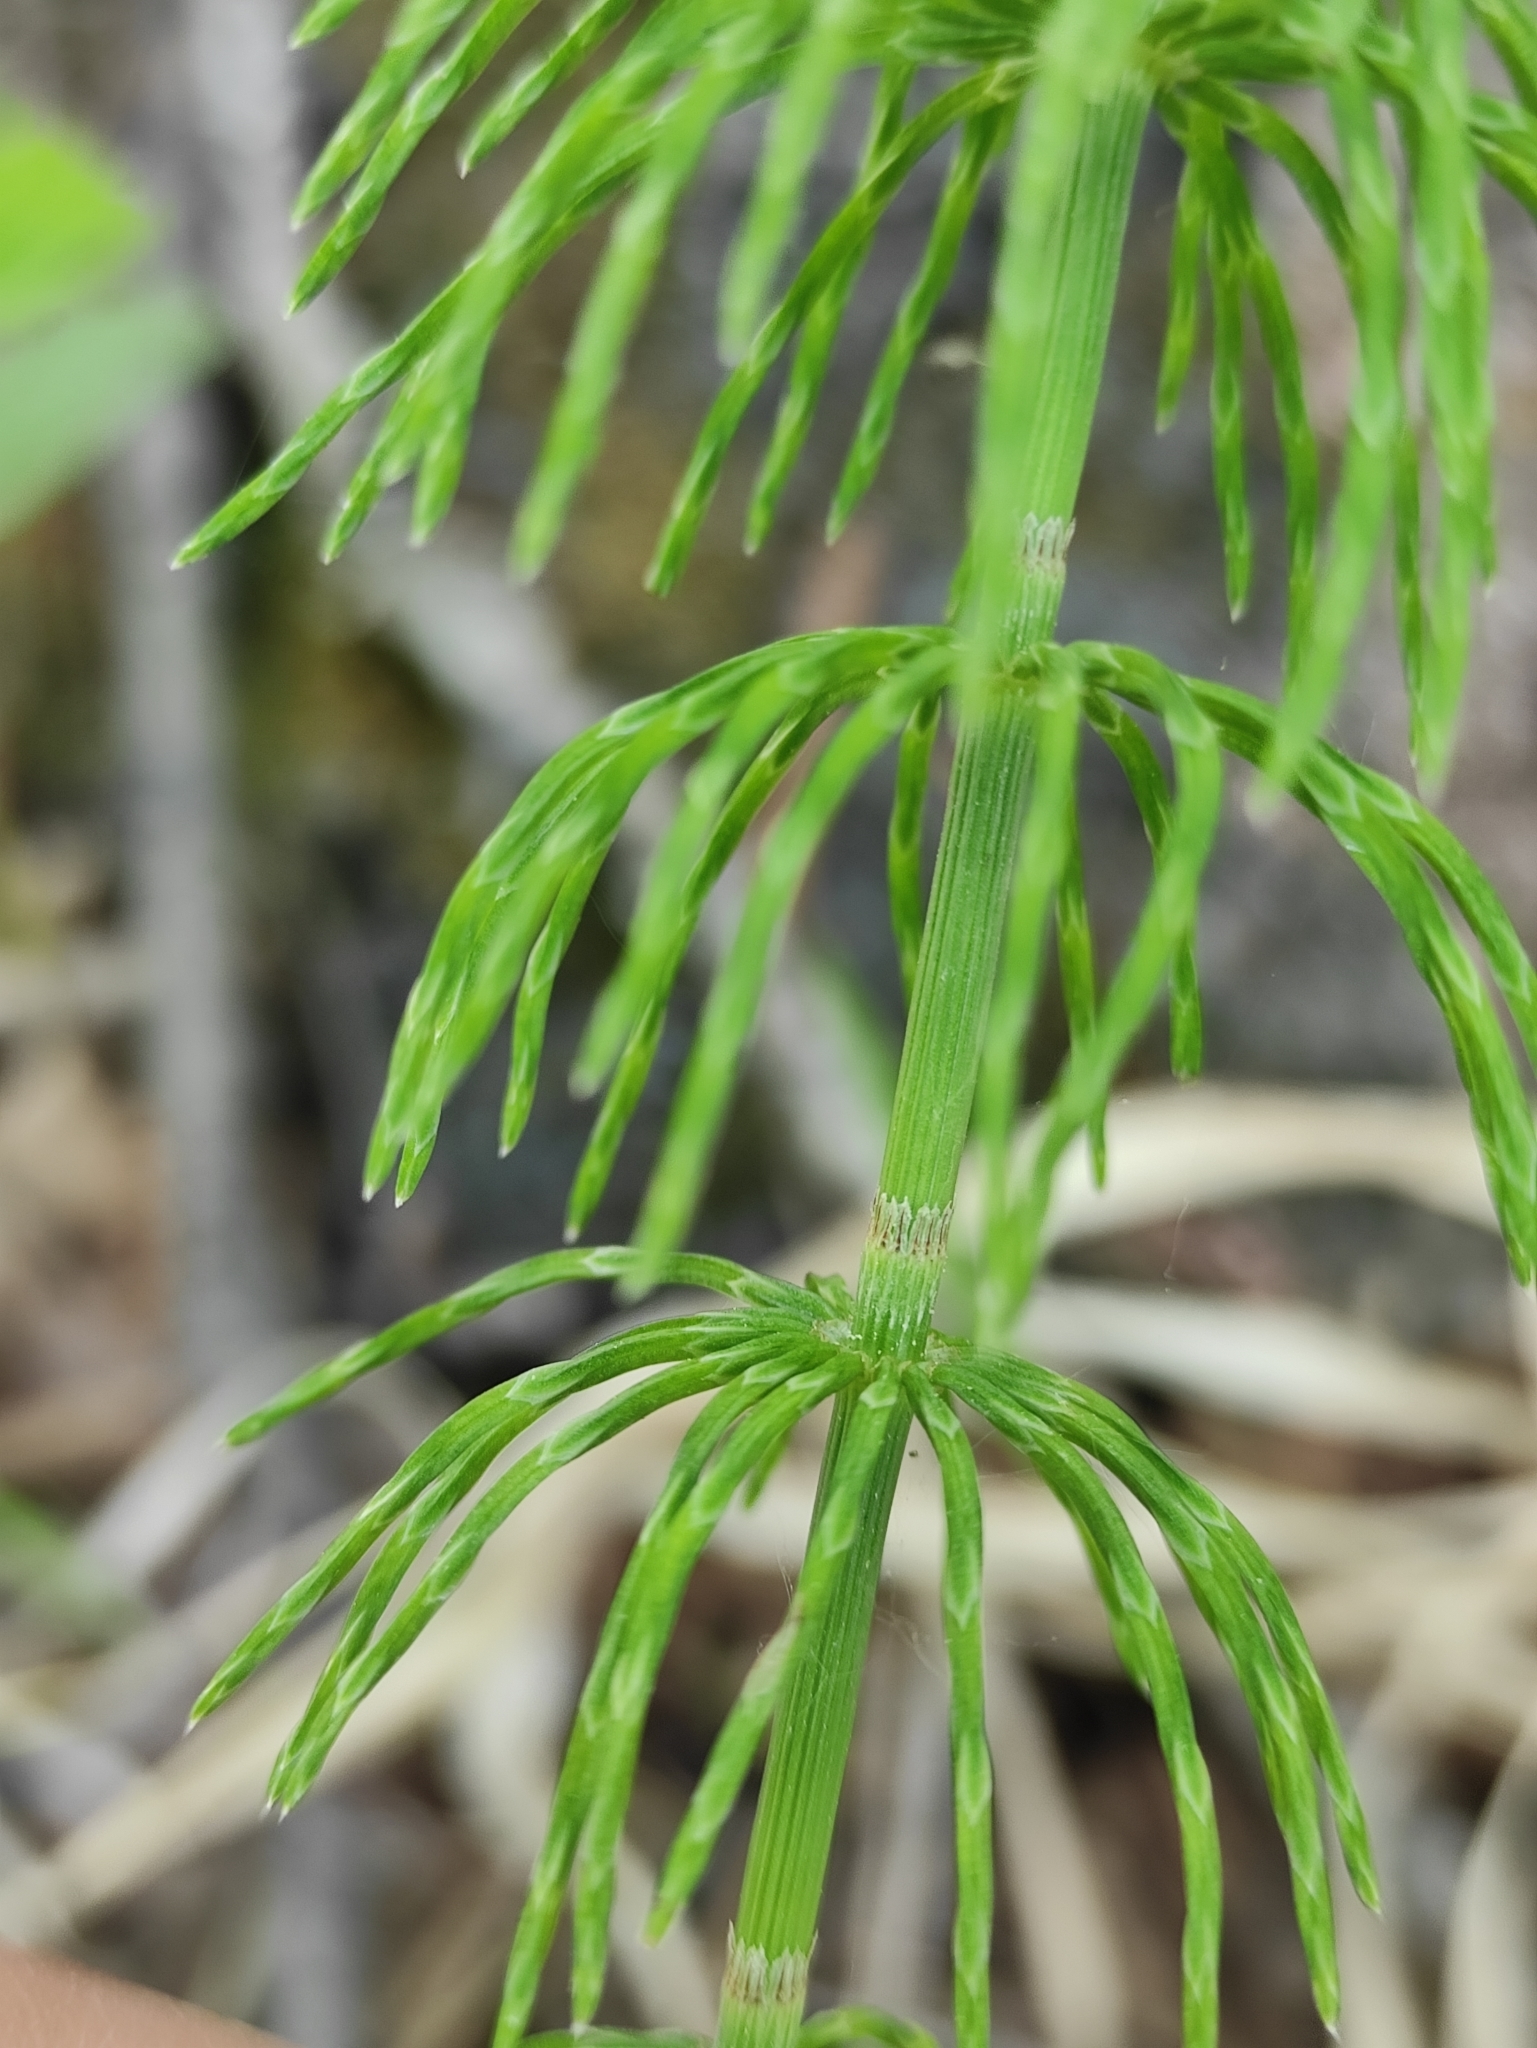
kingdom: Plantae
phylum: Tracheophyta
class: Polypodiopsida
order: Equisetales
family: Equisetaceae
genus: Equisetum
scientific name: Equisetum pratense
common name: Meadow horsetail
